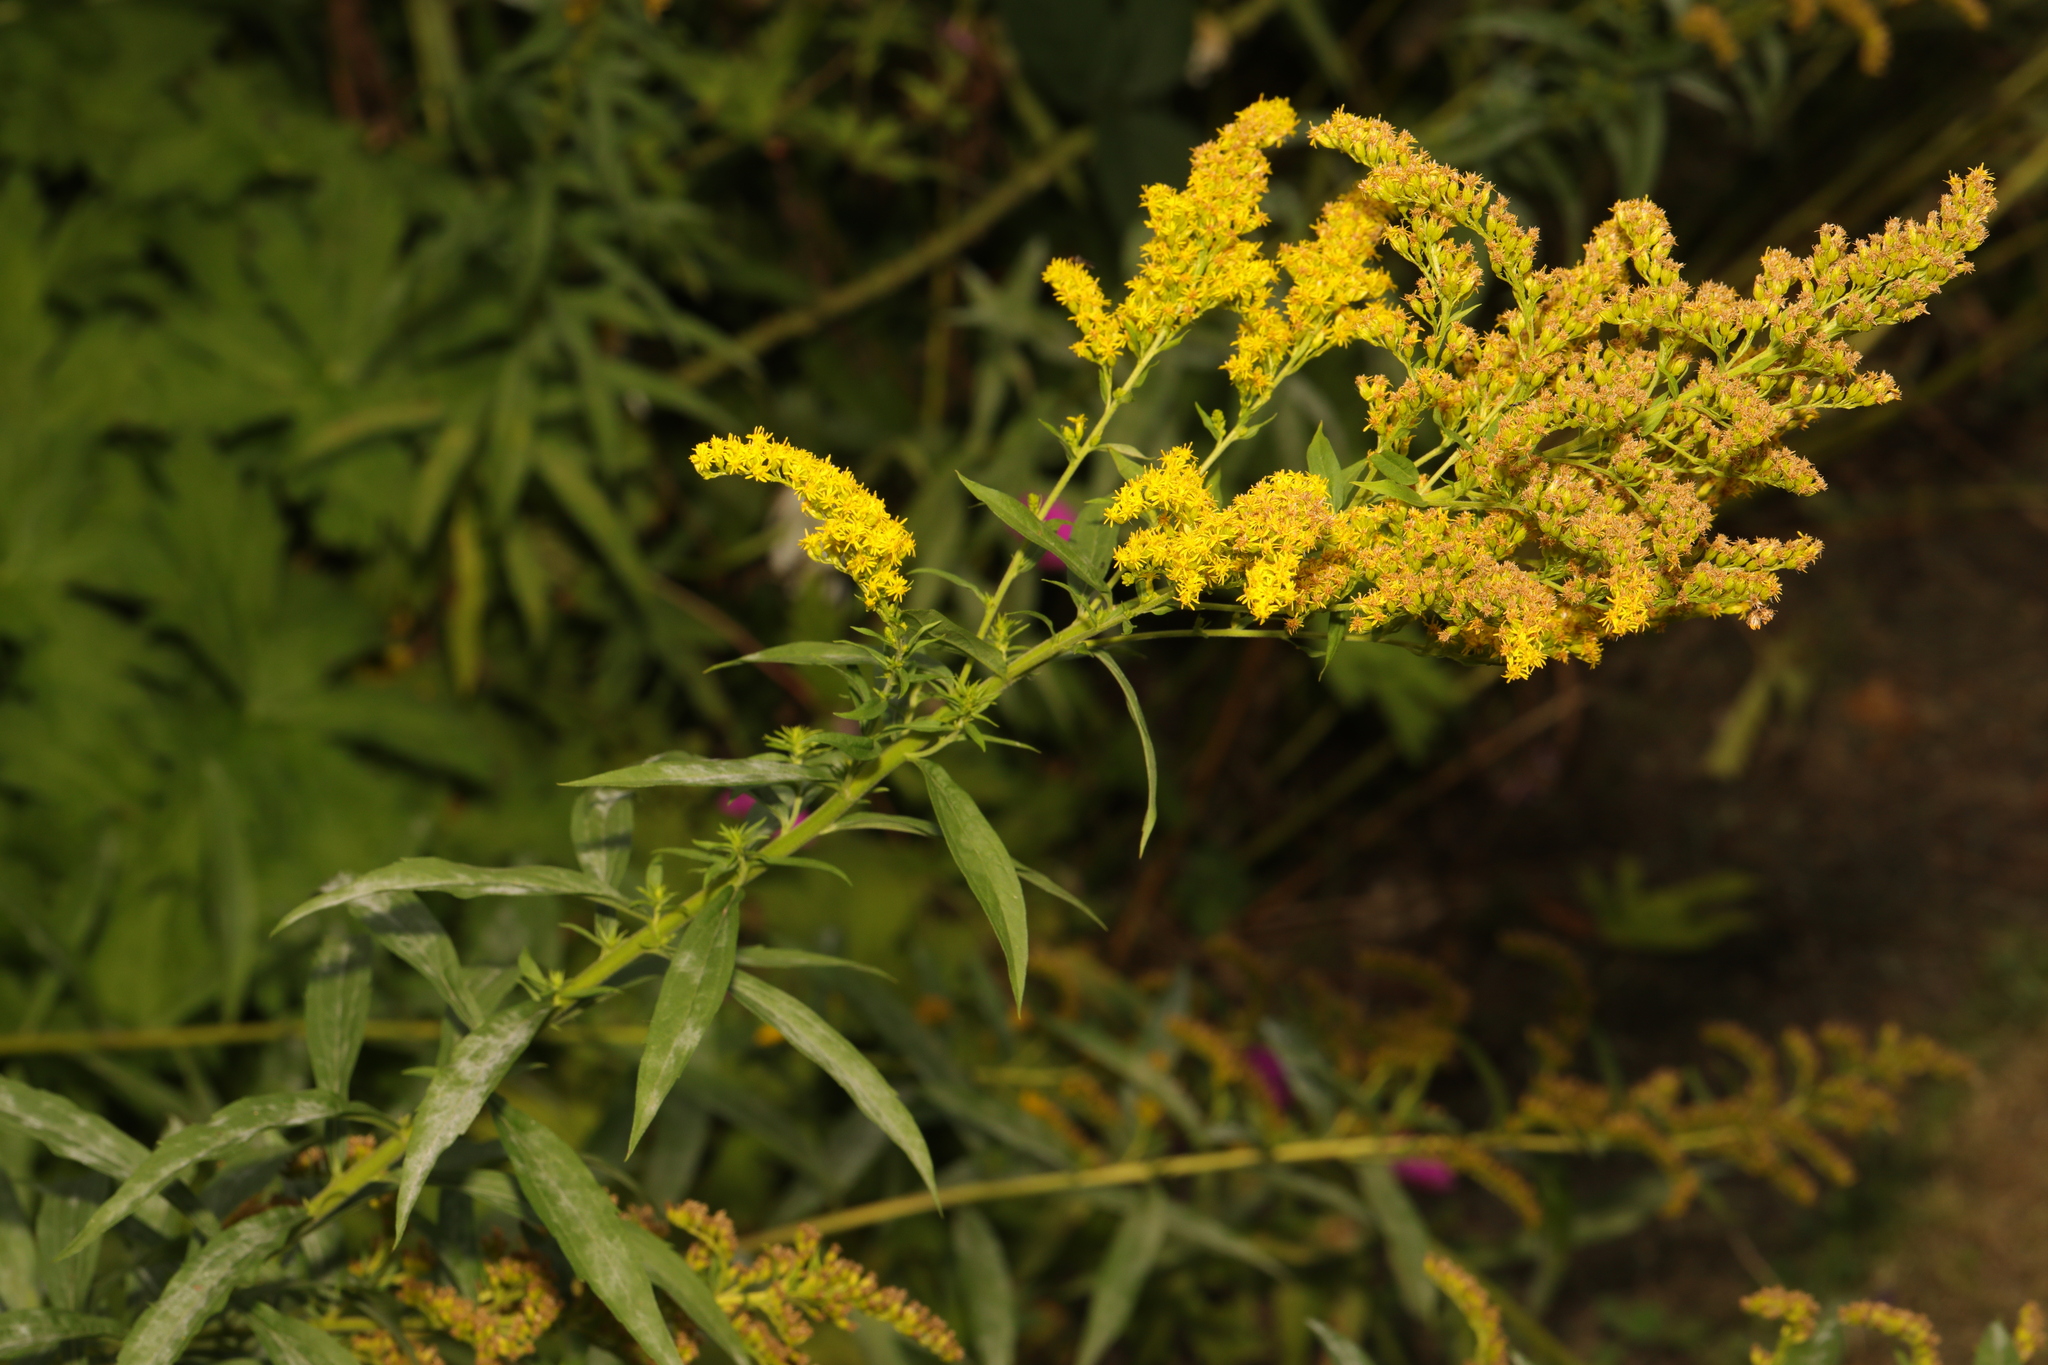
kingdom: Plantae
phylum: Tracheophyta
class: Magnoliopsida
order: Asterales
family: Asteraceae
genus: Solidago
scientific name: Solidago canadensis
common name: Canada goldenrod
